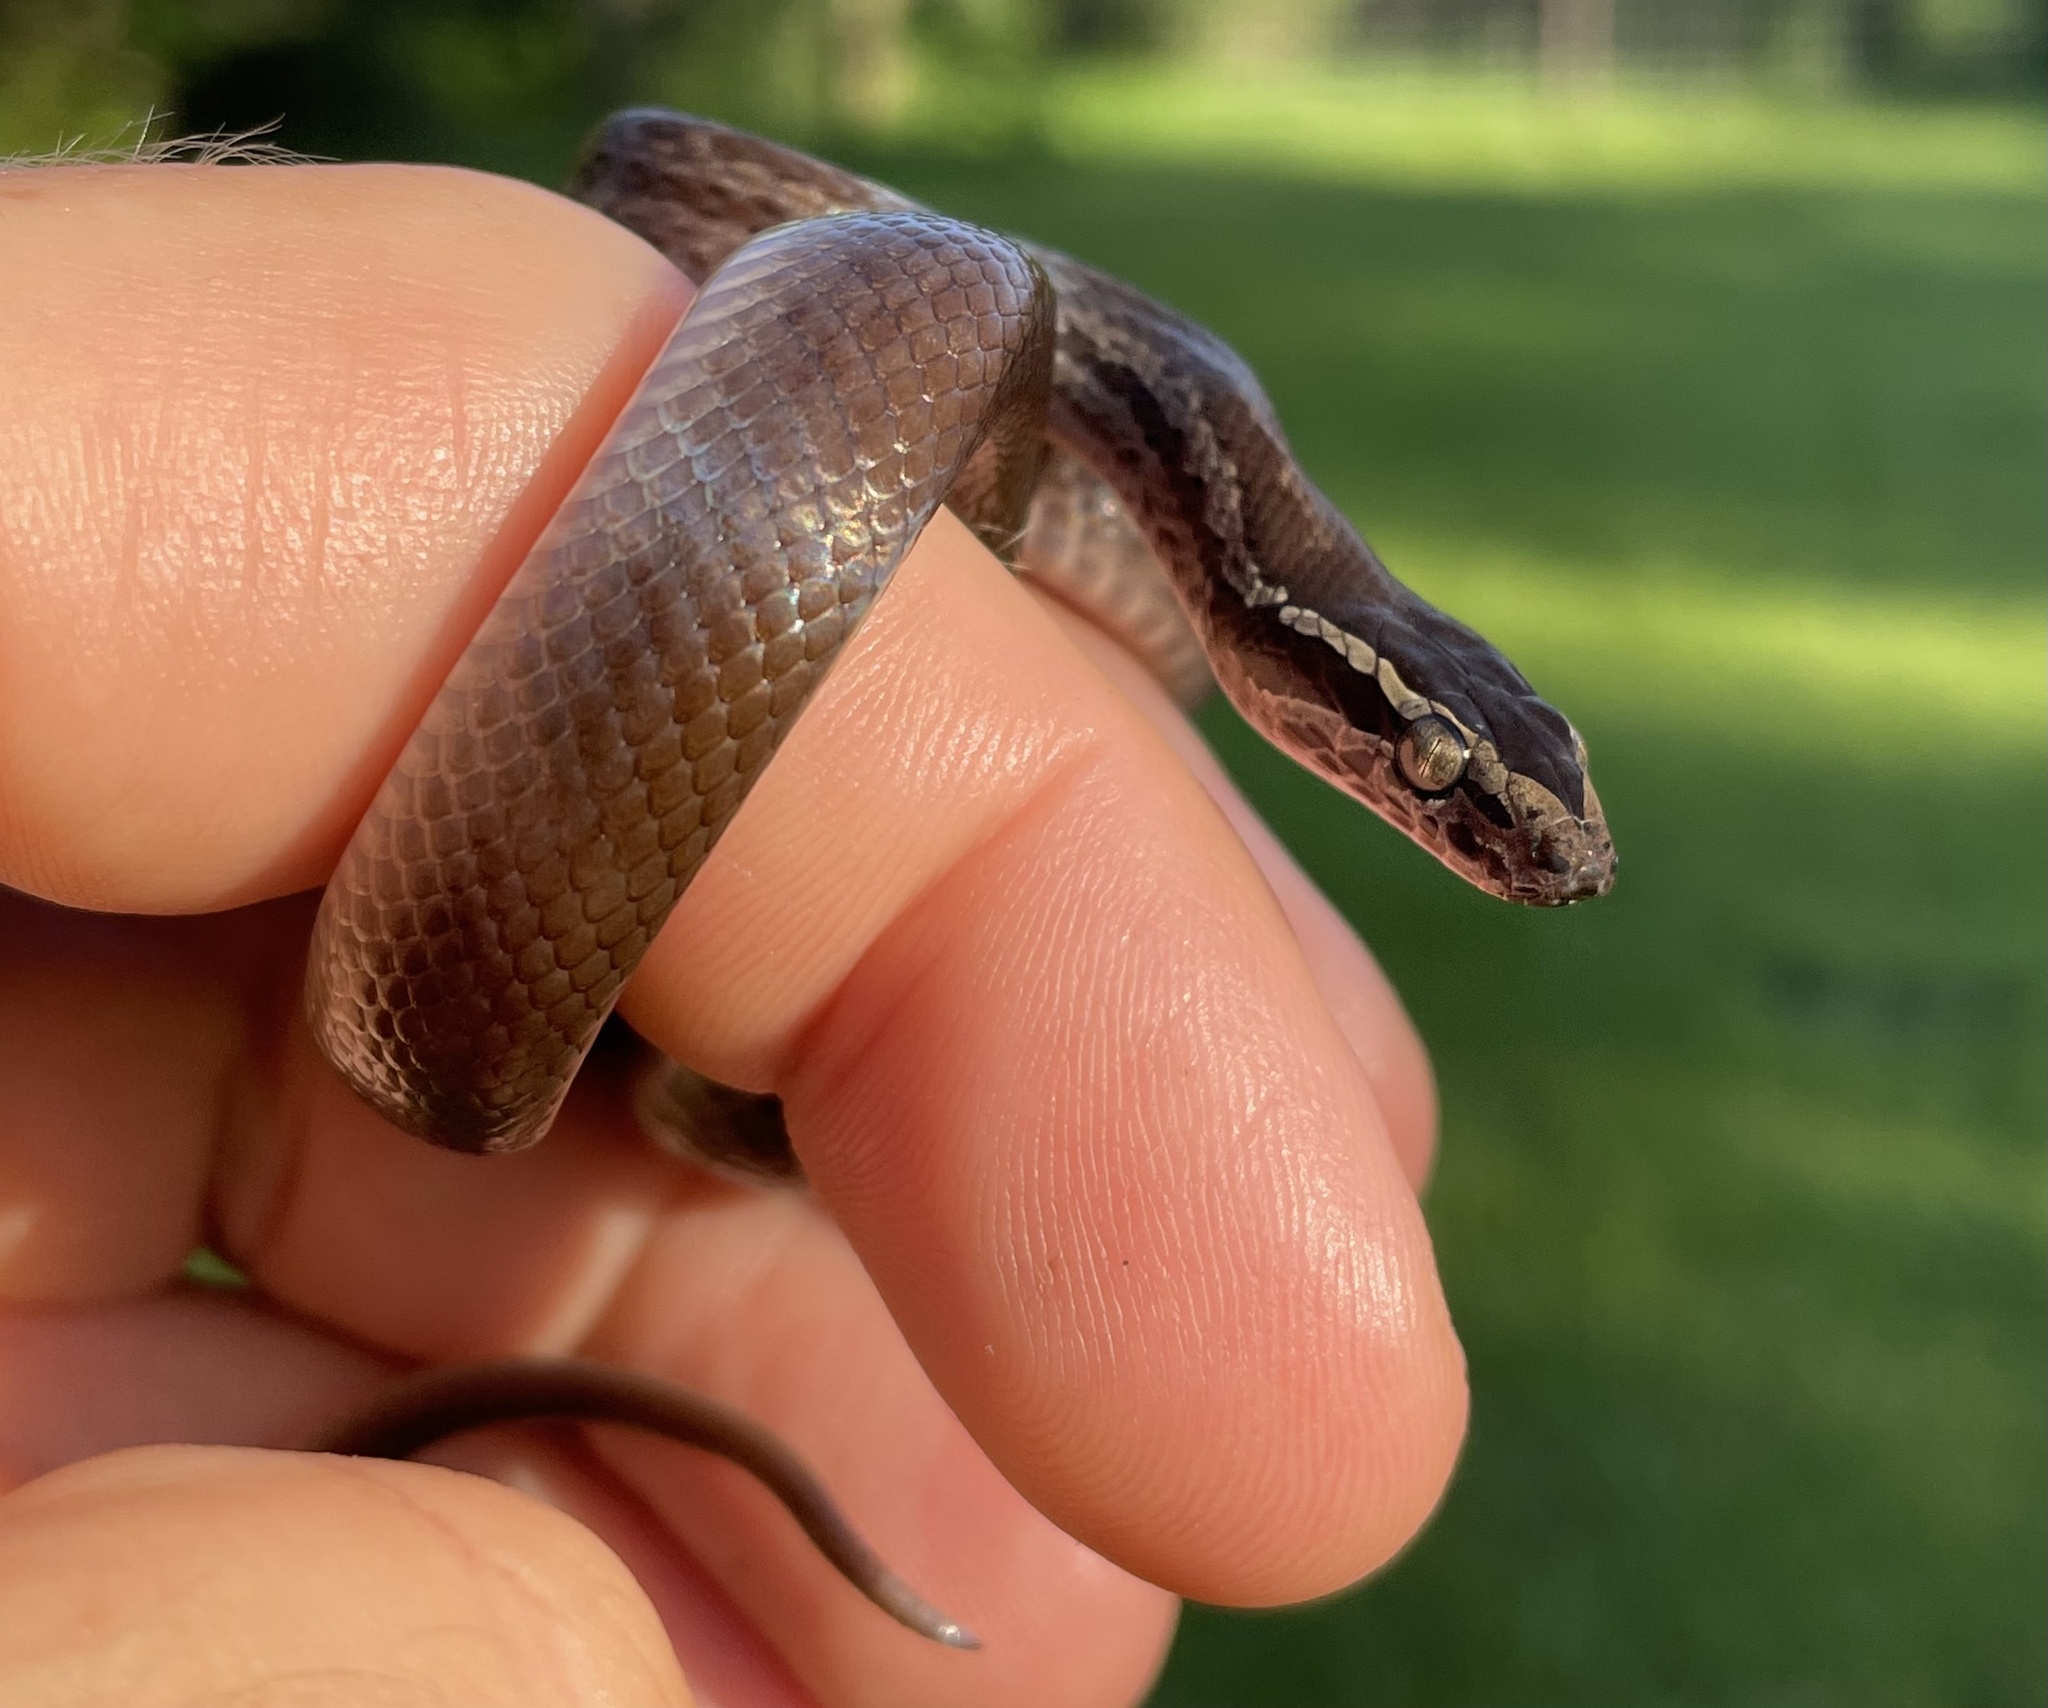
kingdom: Animalia
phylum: Chordata
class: Squamata
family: Lamprophiidae
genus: Boaedon
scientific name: Boaedon capensis
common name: Brown house snake
